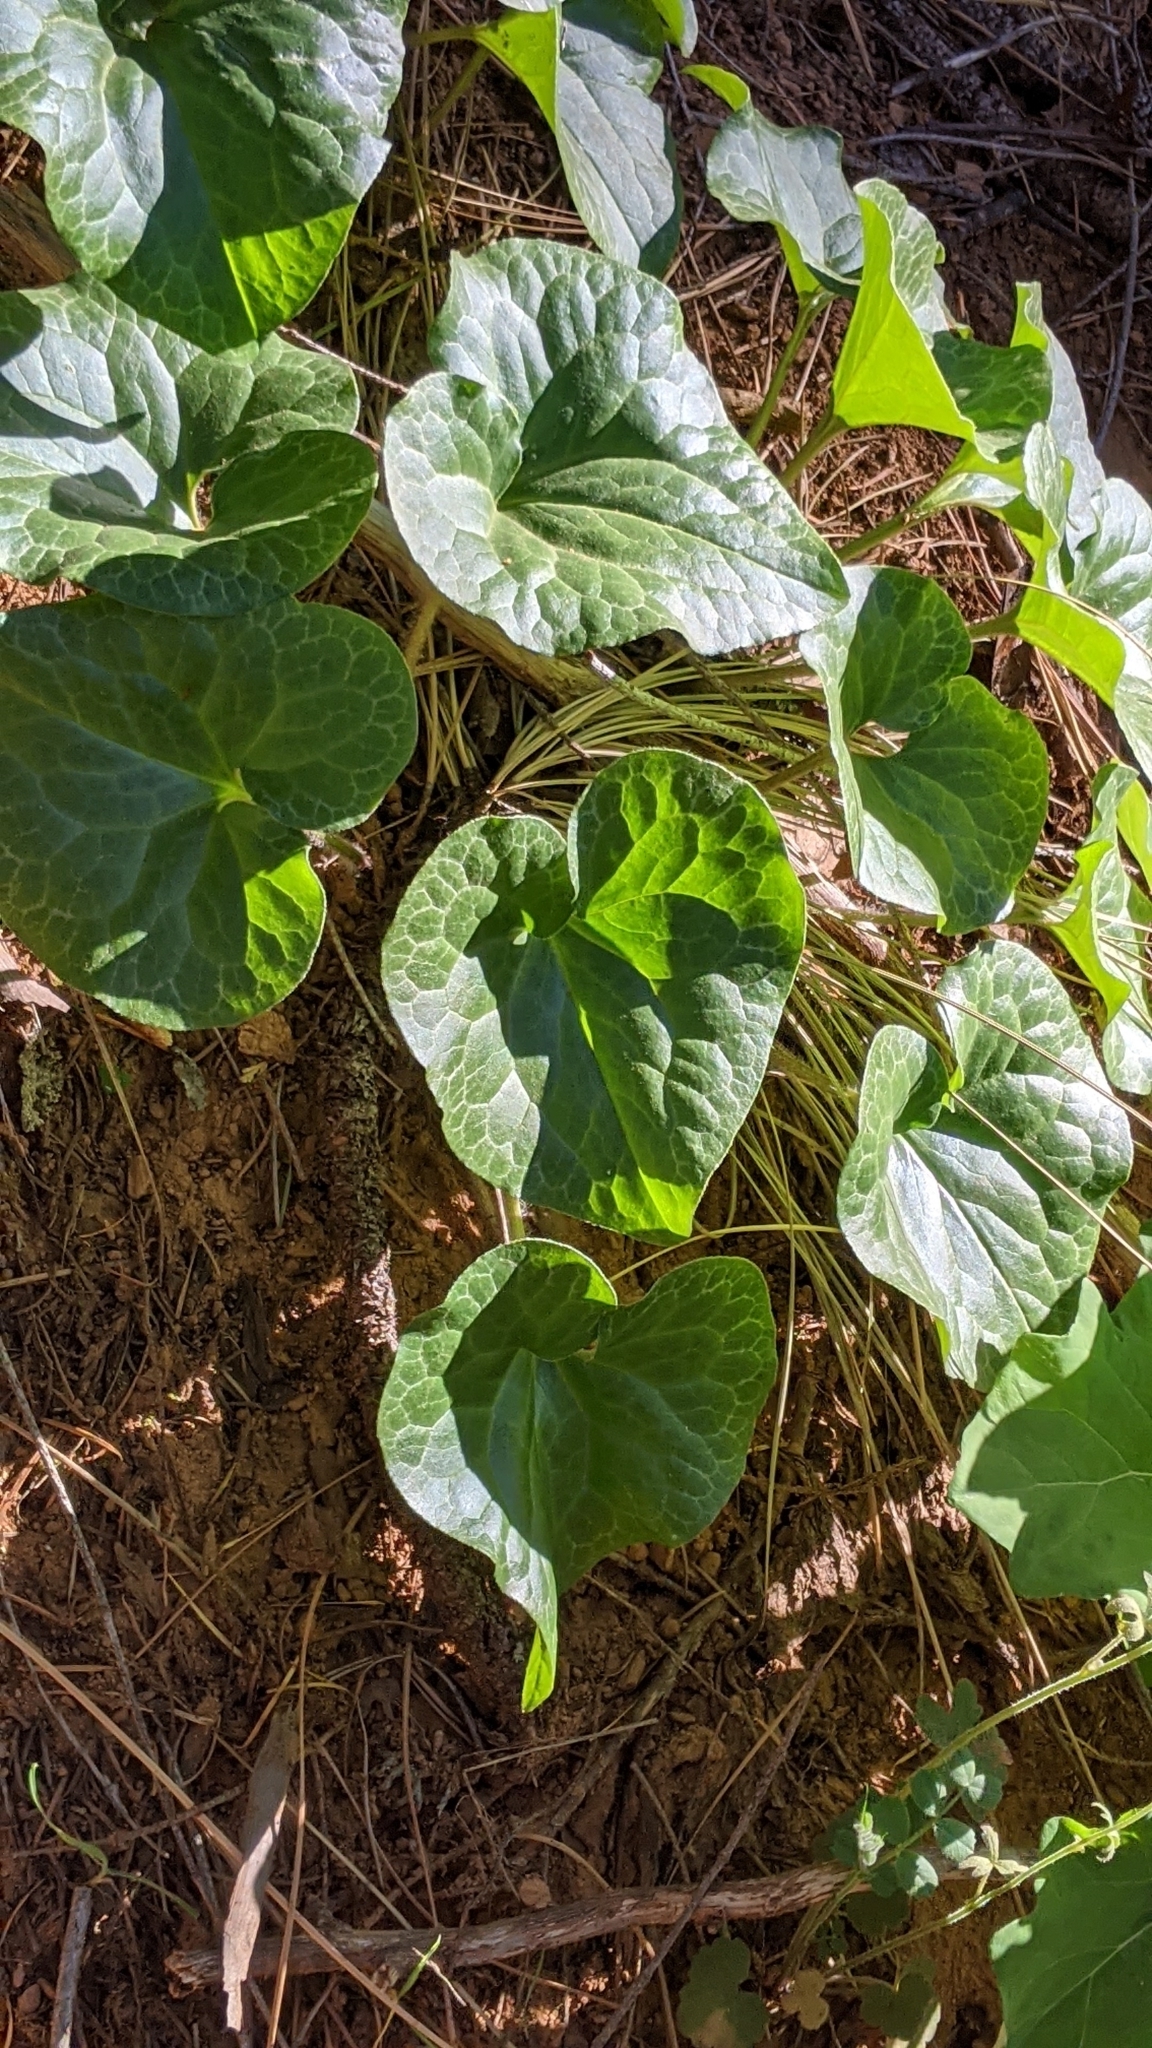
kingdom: Plantae
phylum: Tracheophyta
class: Magnoliopsida
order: Piperales
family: Aristolochiaceae
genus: Asarum
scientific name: Asarum hartwegii
